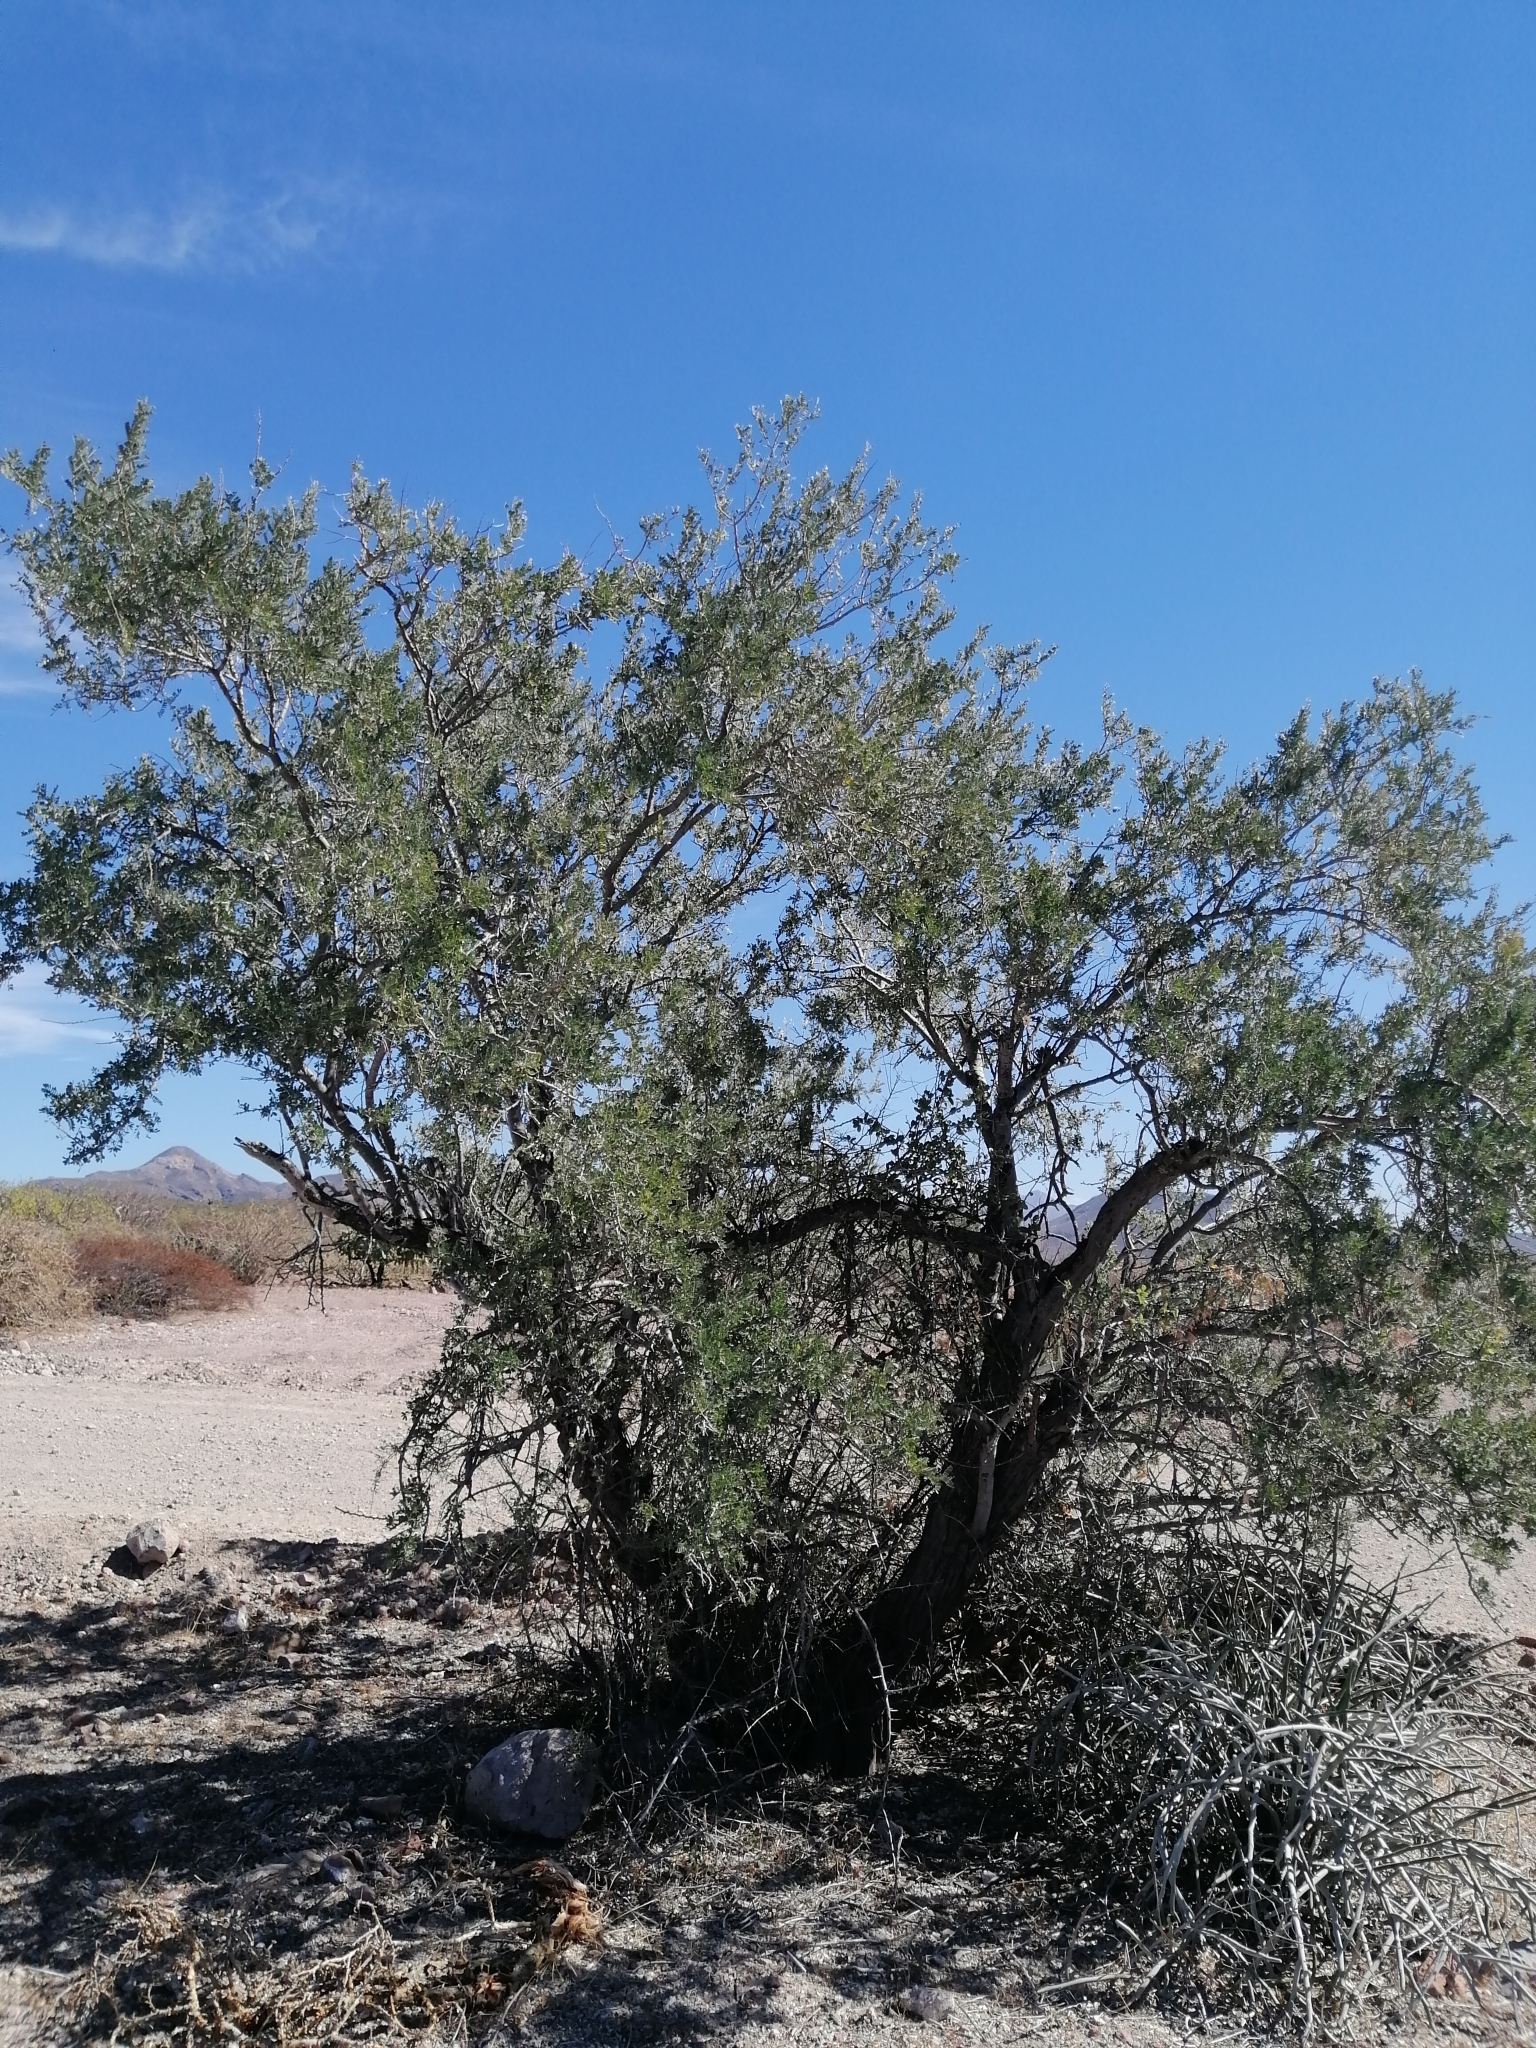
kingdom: Plantae
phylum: Tracheophyta
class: Magnoliopsida
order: Fabales
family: Fabaceae
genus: Olneya
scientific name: Olneya tesota
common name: Desert ironwood
